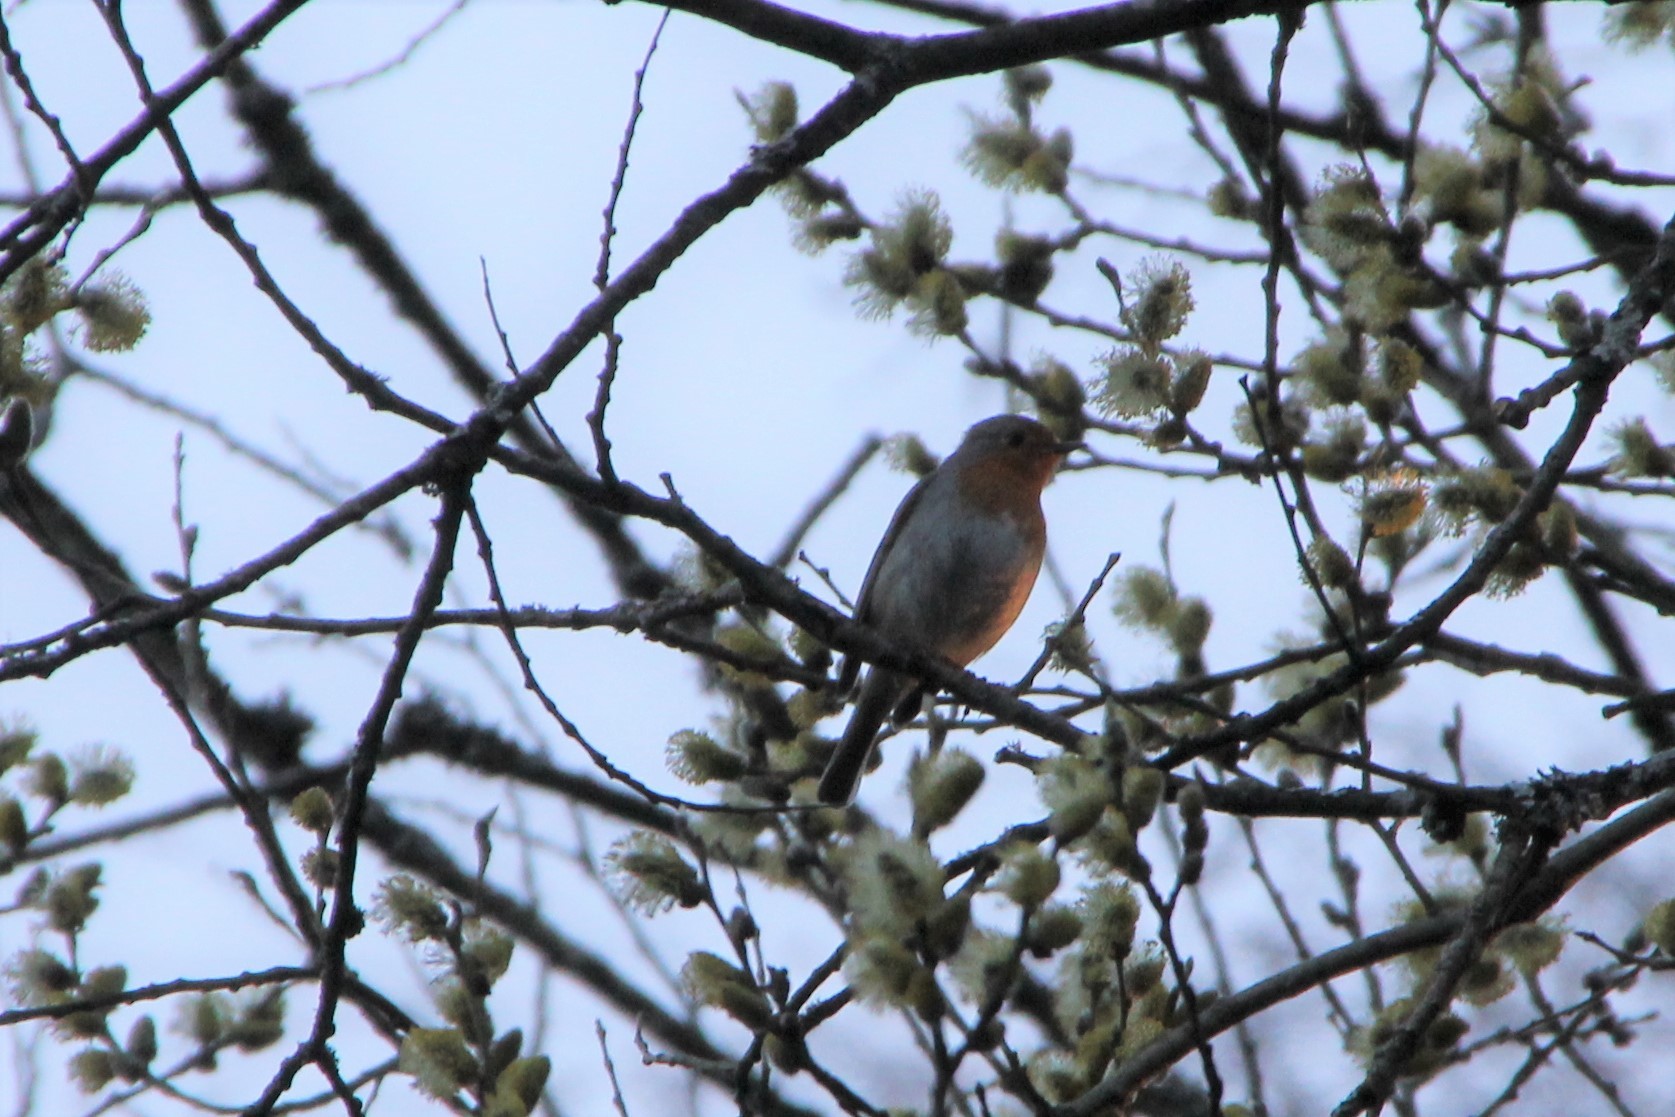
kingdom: Animalia
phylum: Chordata
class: Aves
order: Passeriformes
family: Muscicapidae
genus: Erithacus
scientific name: Erithacus rubecula
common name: European robin
